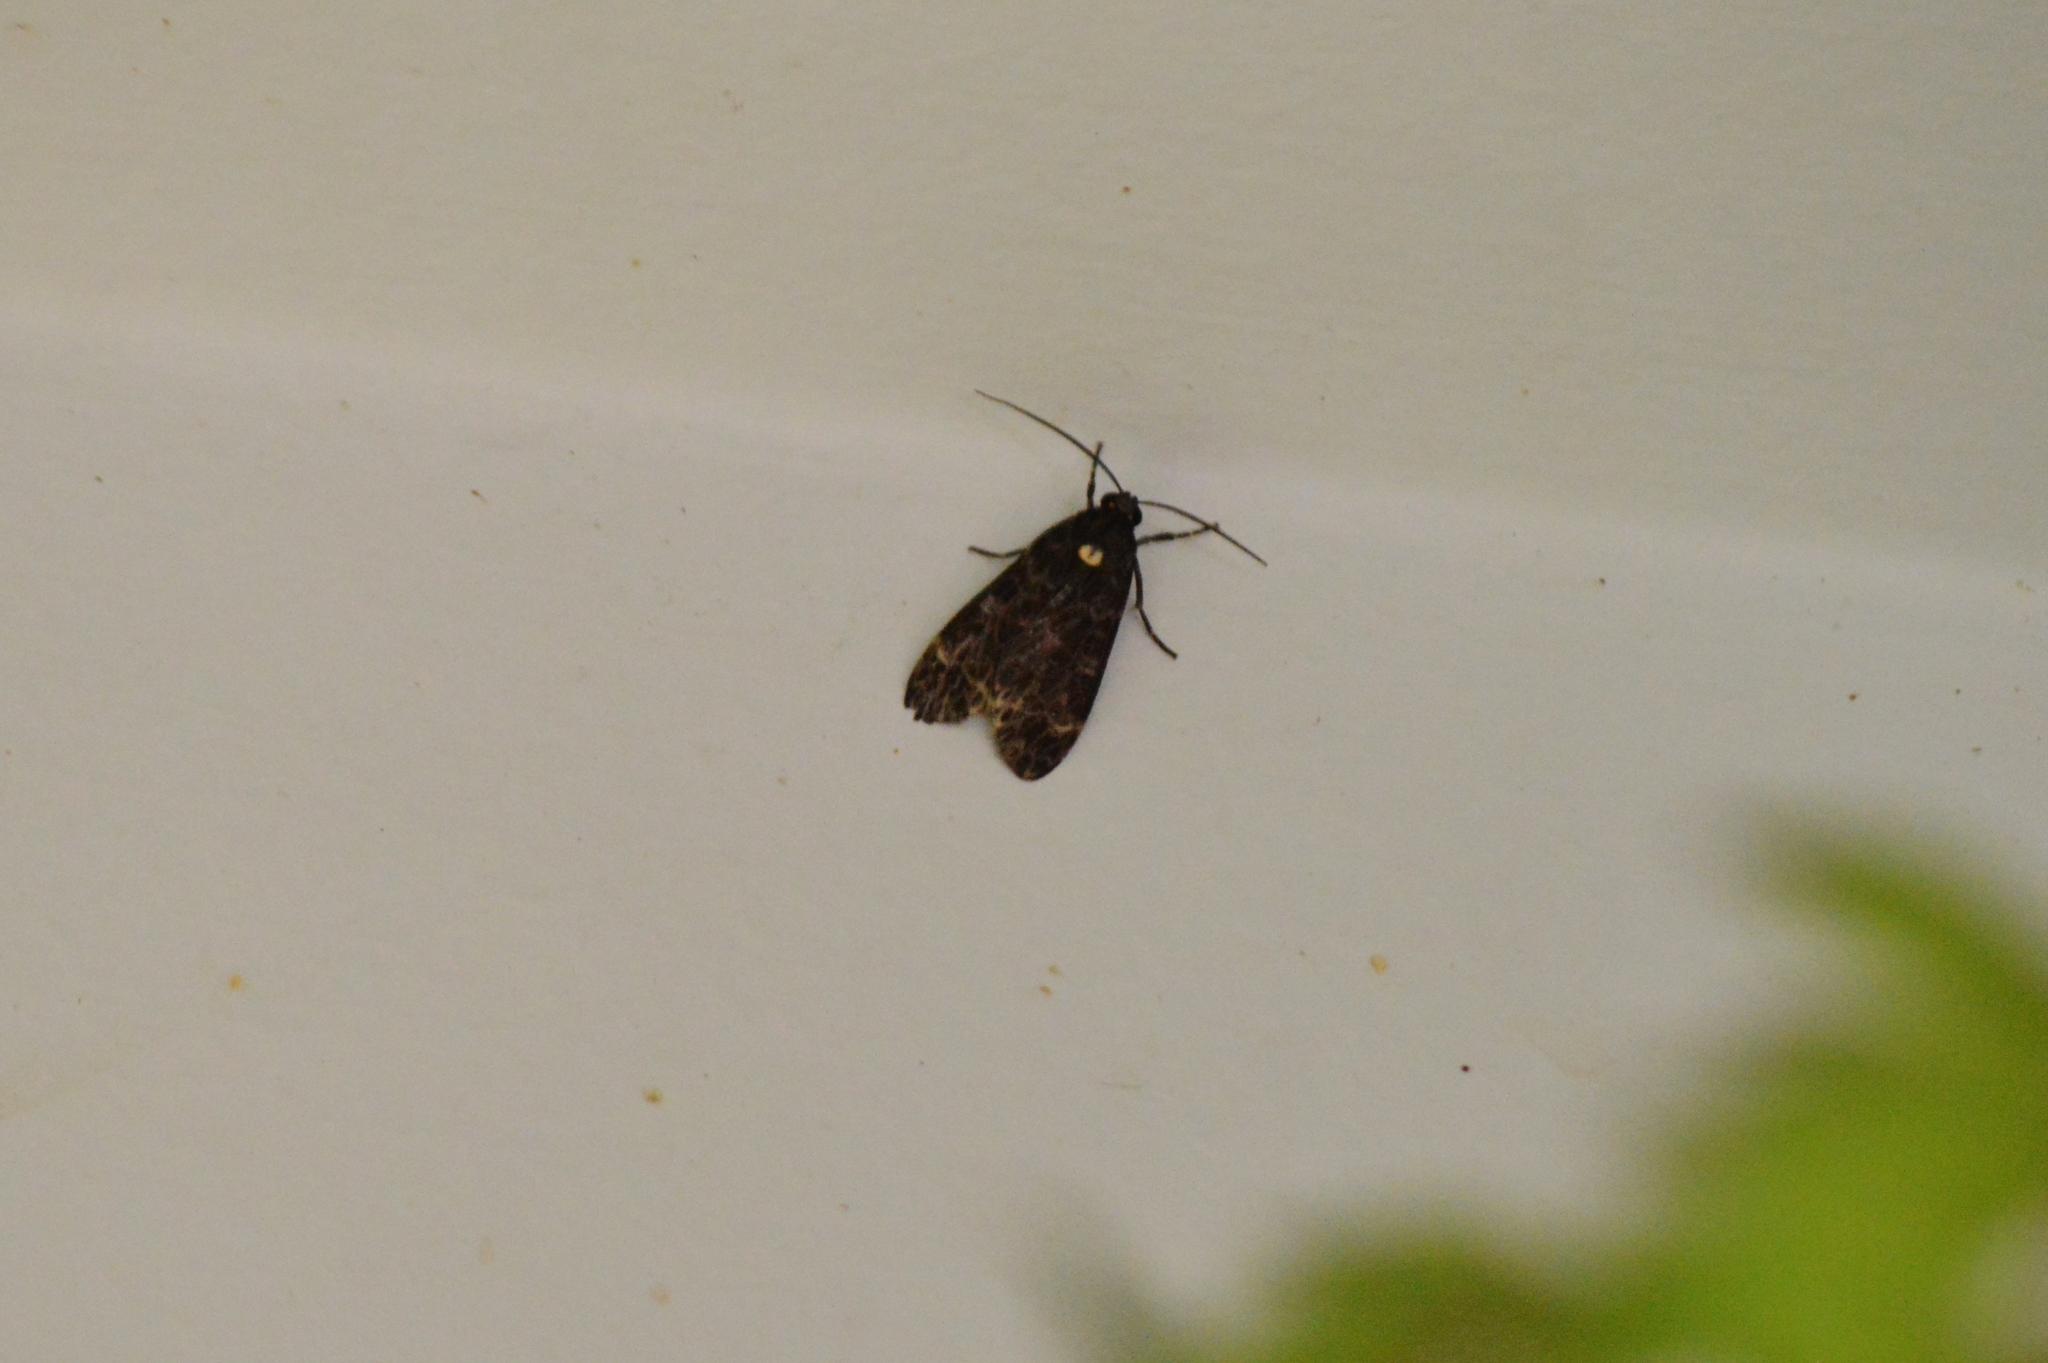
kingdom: Animalia
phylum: Arthropoda
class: Insecta
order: Lepidoptera
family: Erebidae
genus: Eucereon
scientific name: Eucereon sylvius
